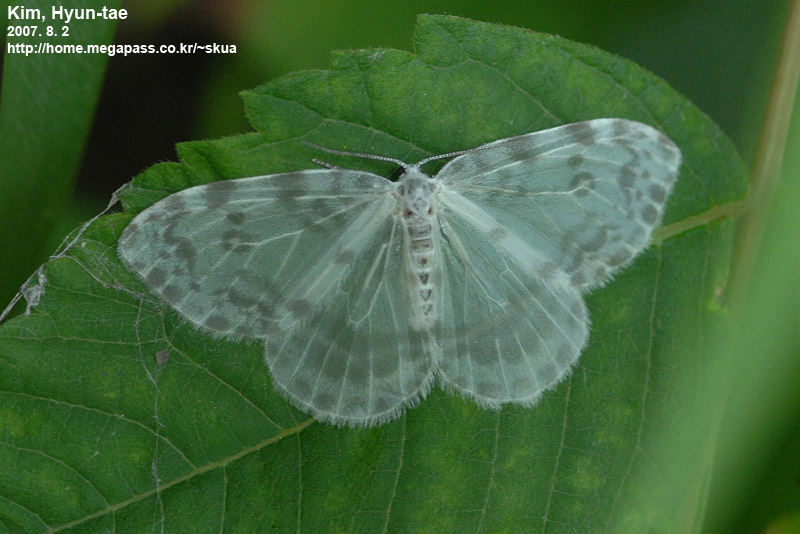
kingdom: Animalia
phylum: Arthropoda
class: Insecta
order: Lepidoptera
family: Drepanidae
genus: Deroca
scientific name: Deroca inconclusa
